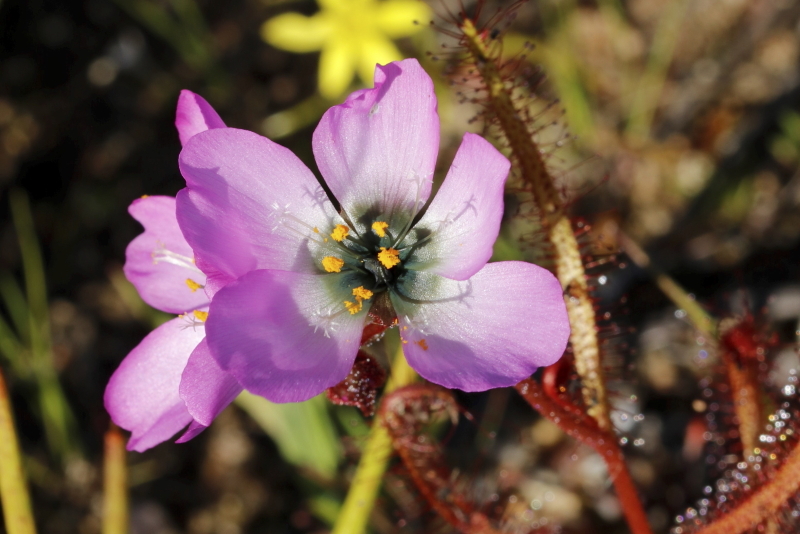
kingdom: Plantae
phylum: Tracheophyta
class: Magnoliopsida
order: Caryophyllales
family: Droseraceae
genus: Drosera
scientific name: Drosera cistiflora
